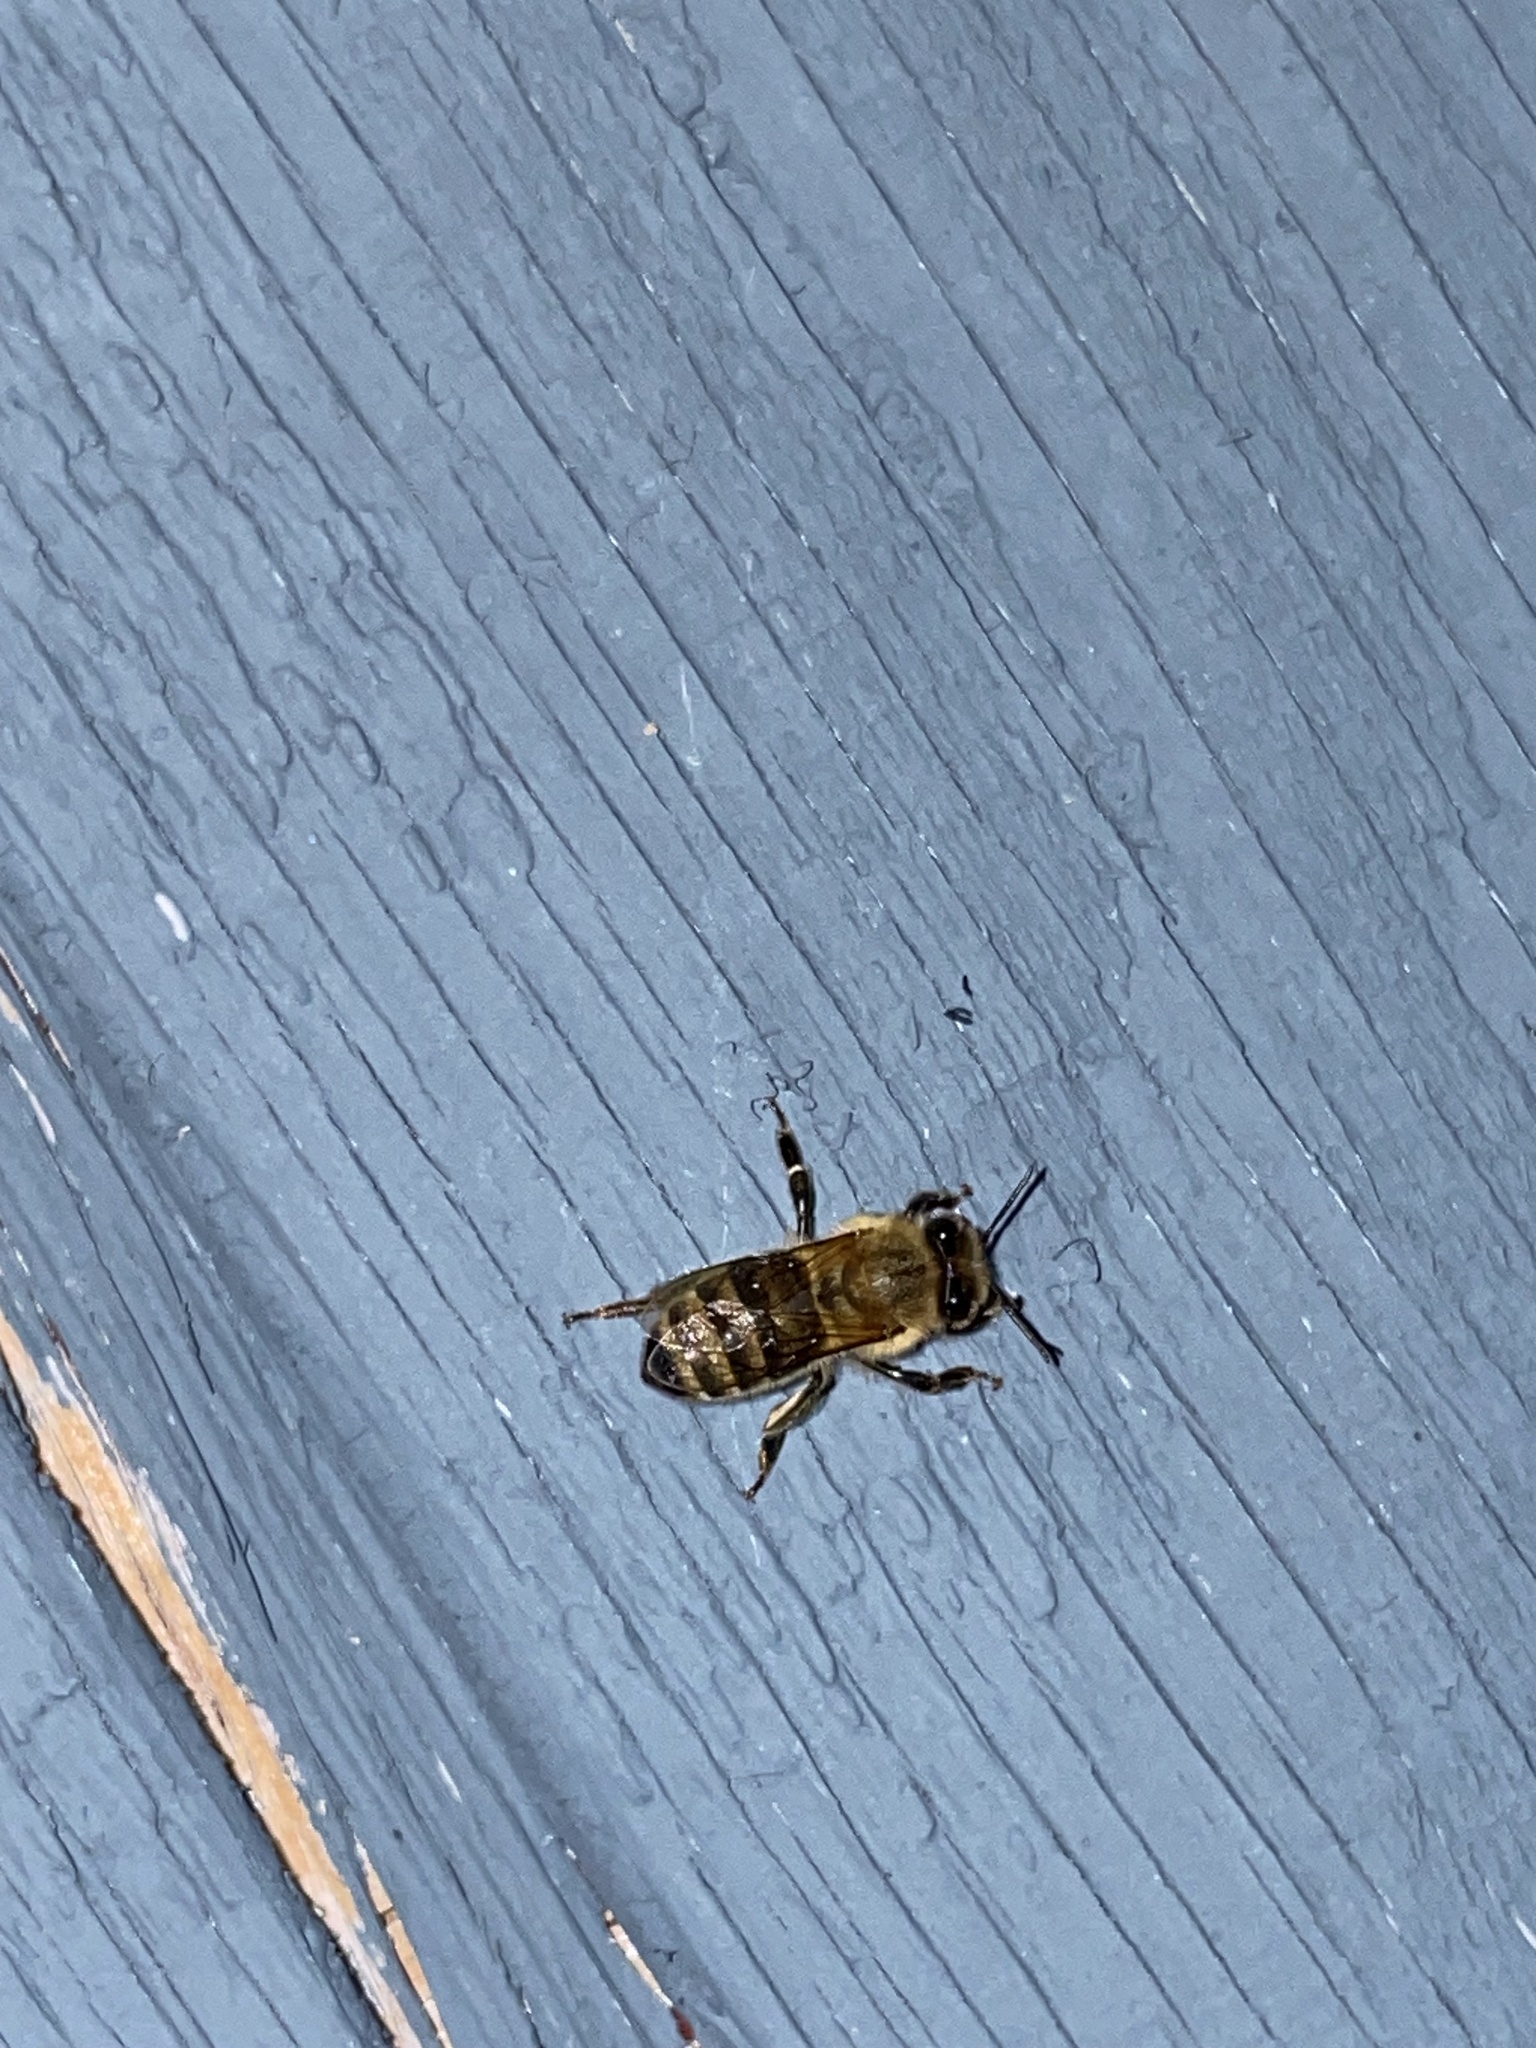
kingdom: Animalia
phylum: Arthropoda
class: Insecta
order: Hymenoptera
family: Apidae
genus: Apis
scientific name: Apis mellifera
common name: Honey bee
